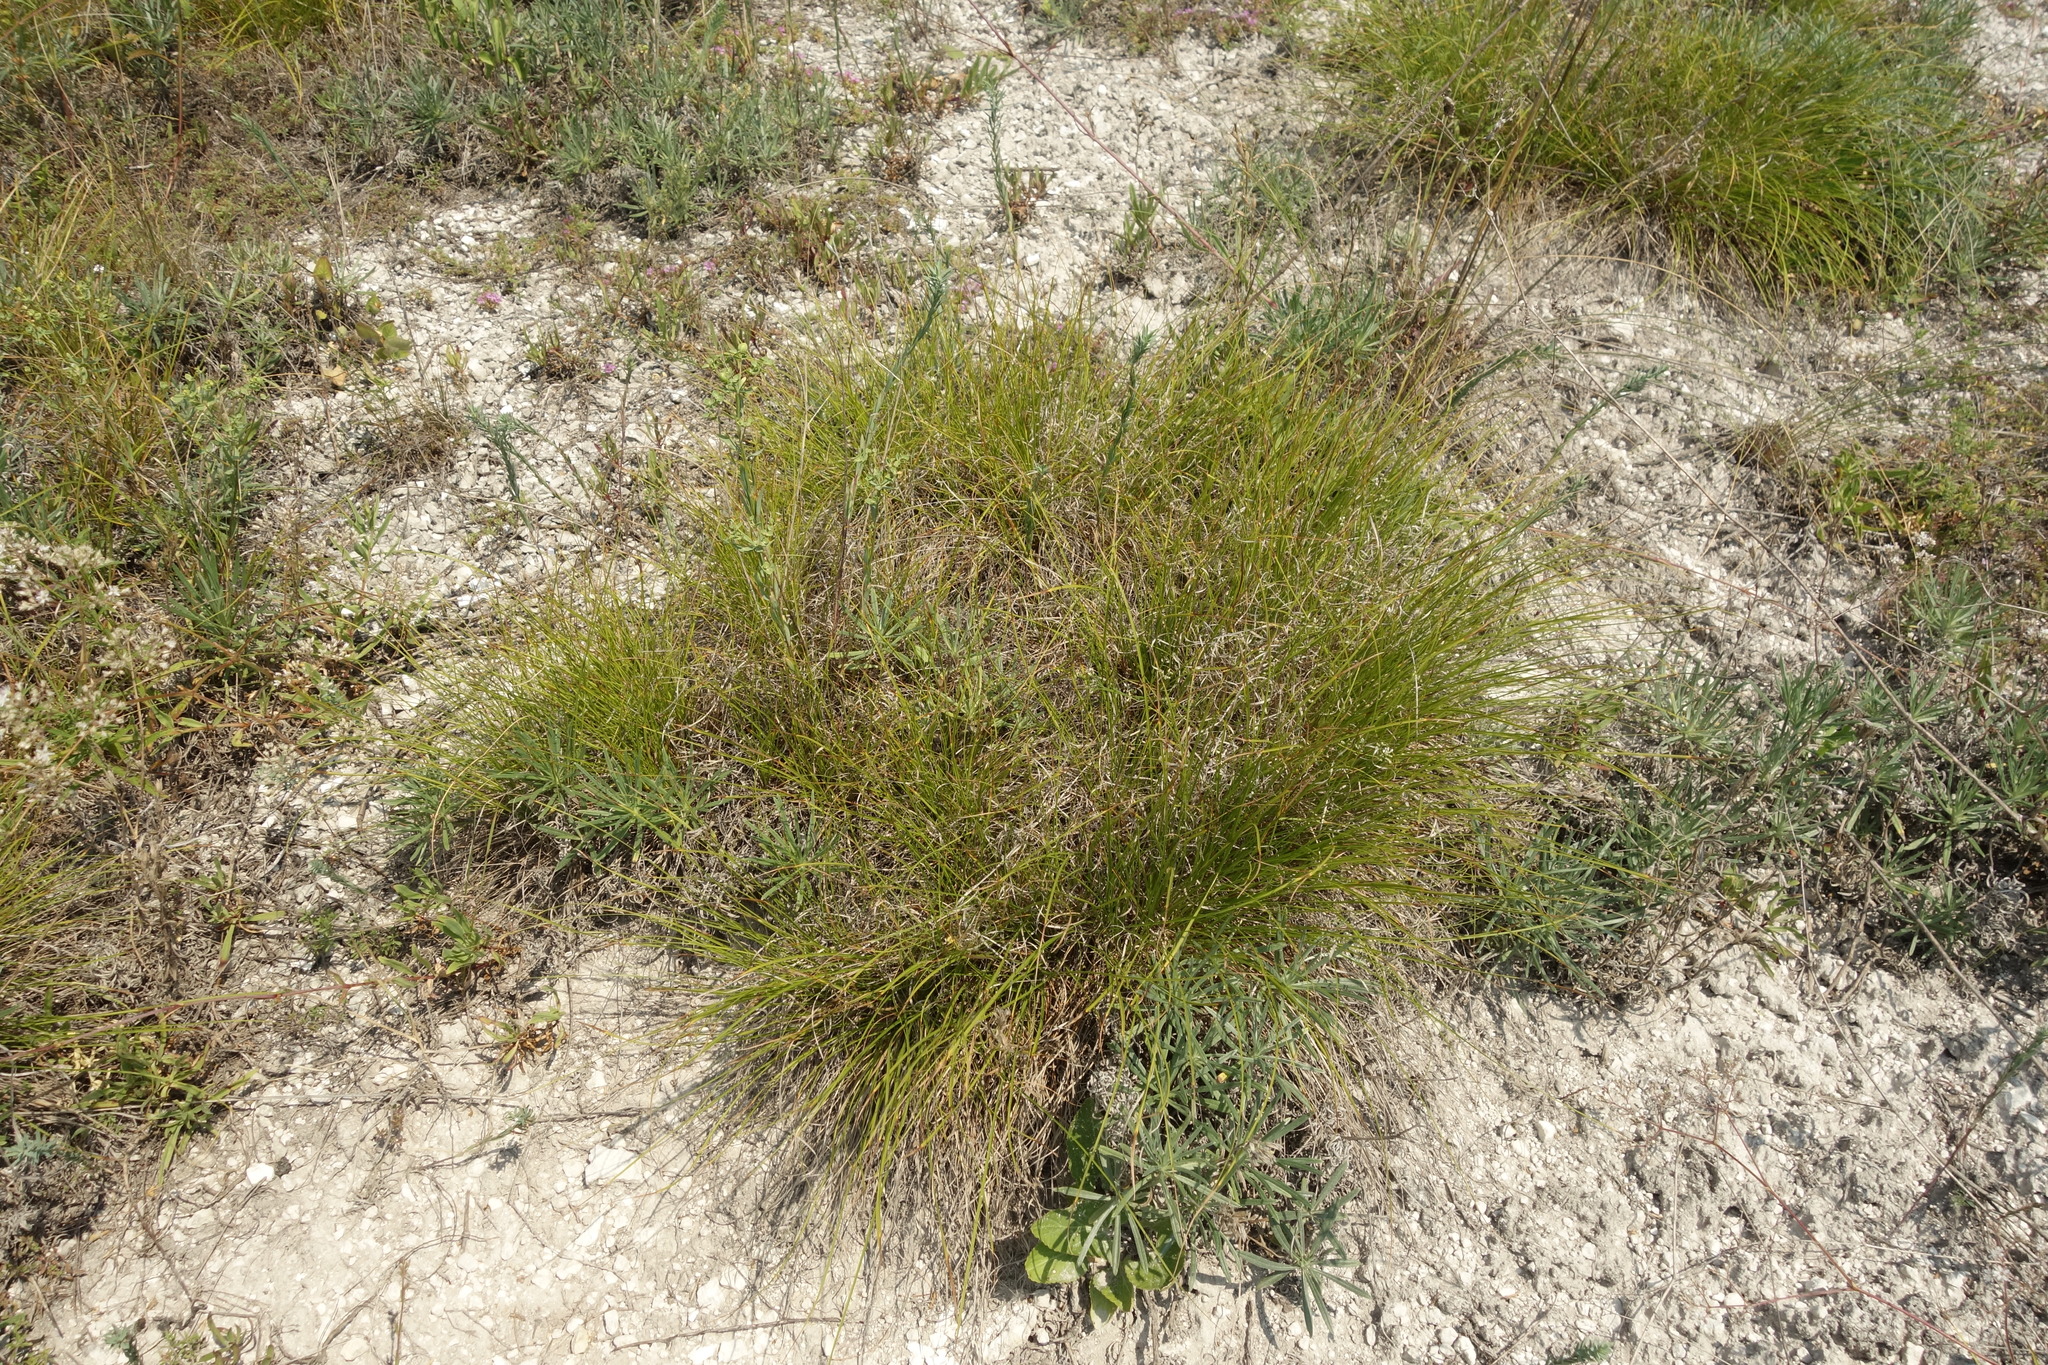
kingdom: Plantae
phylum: Tracheophyta
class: Liliopsida
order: Poales
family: Cyperaceae
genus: Carex
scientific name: Carex humilis
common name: Dwarf sedge
